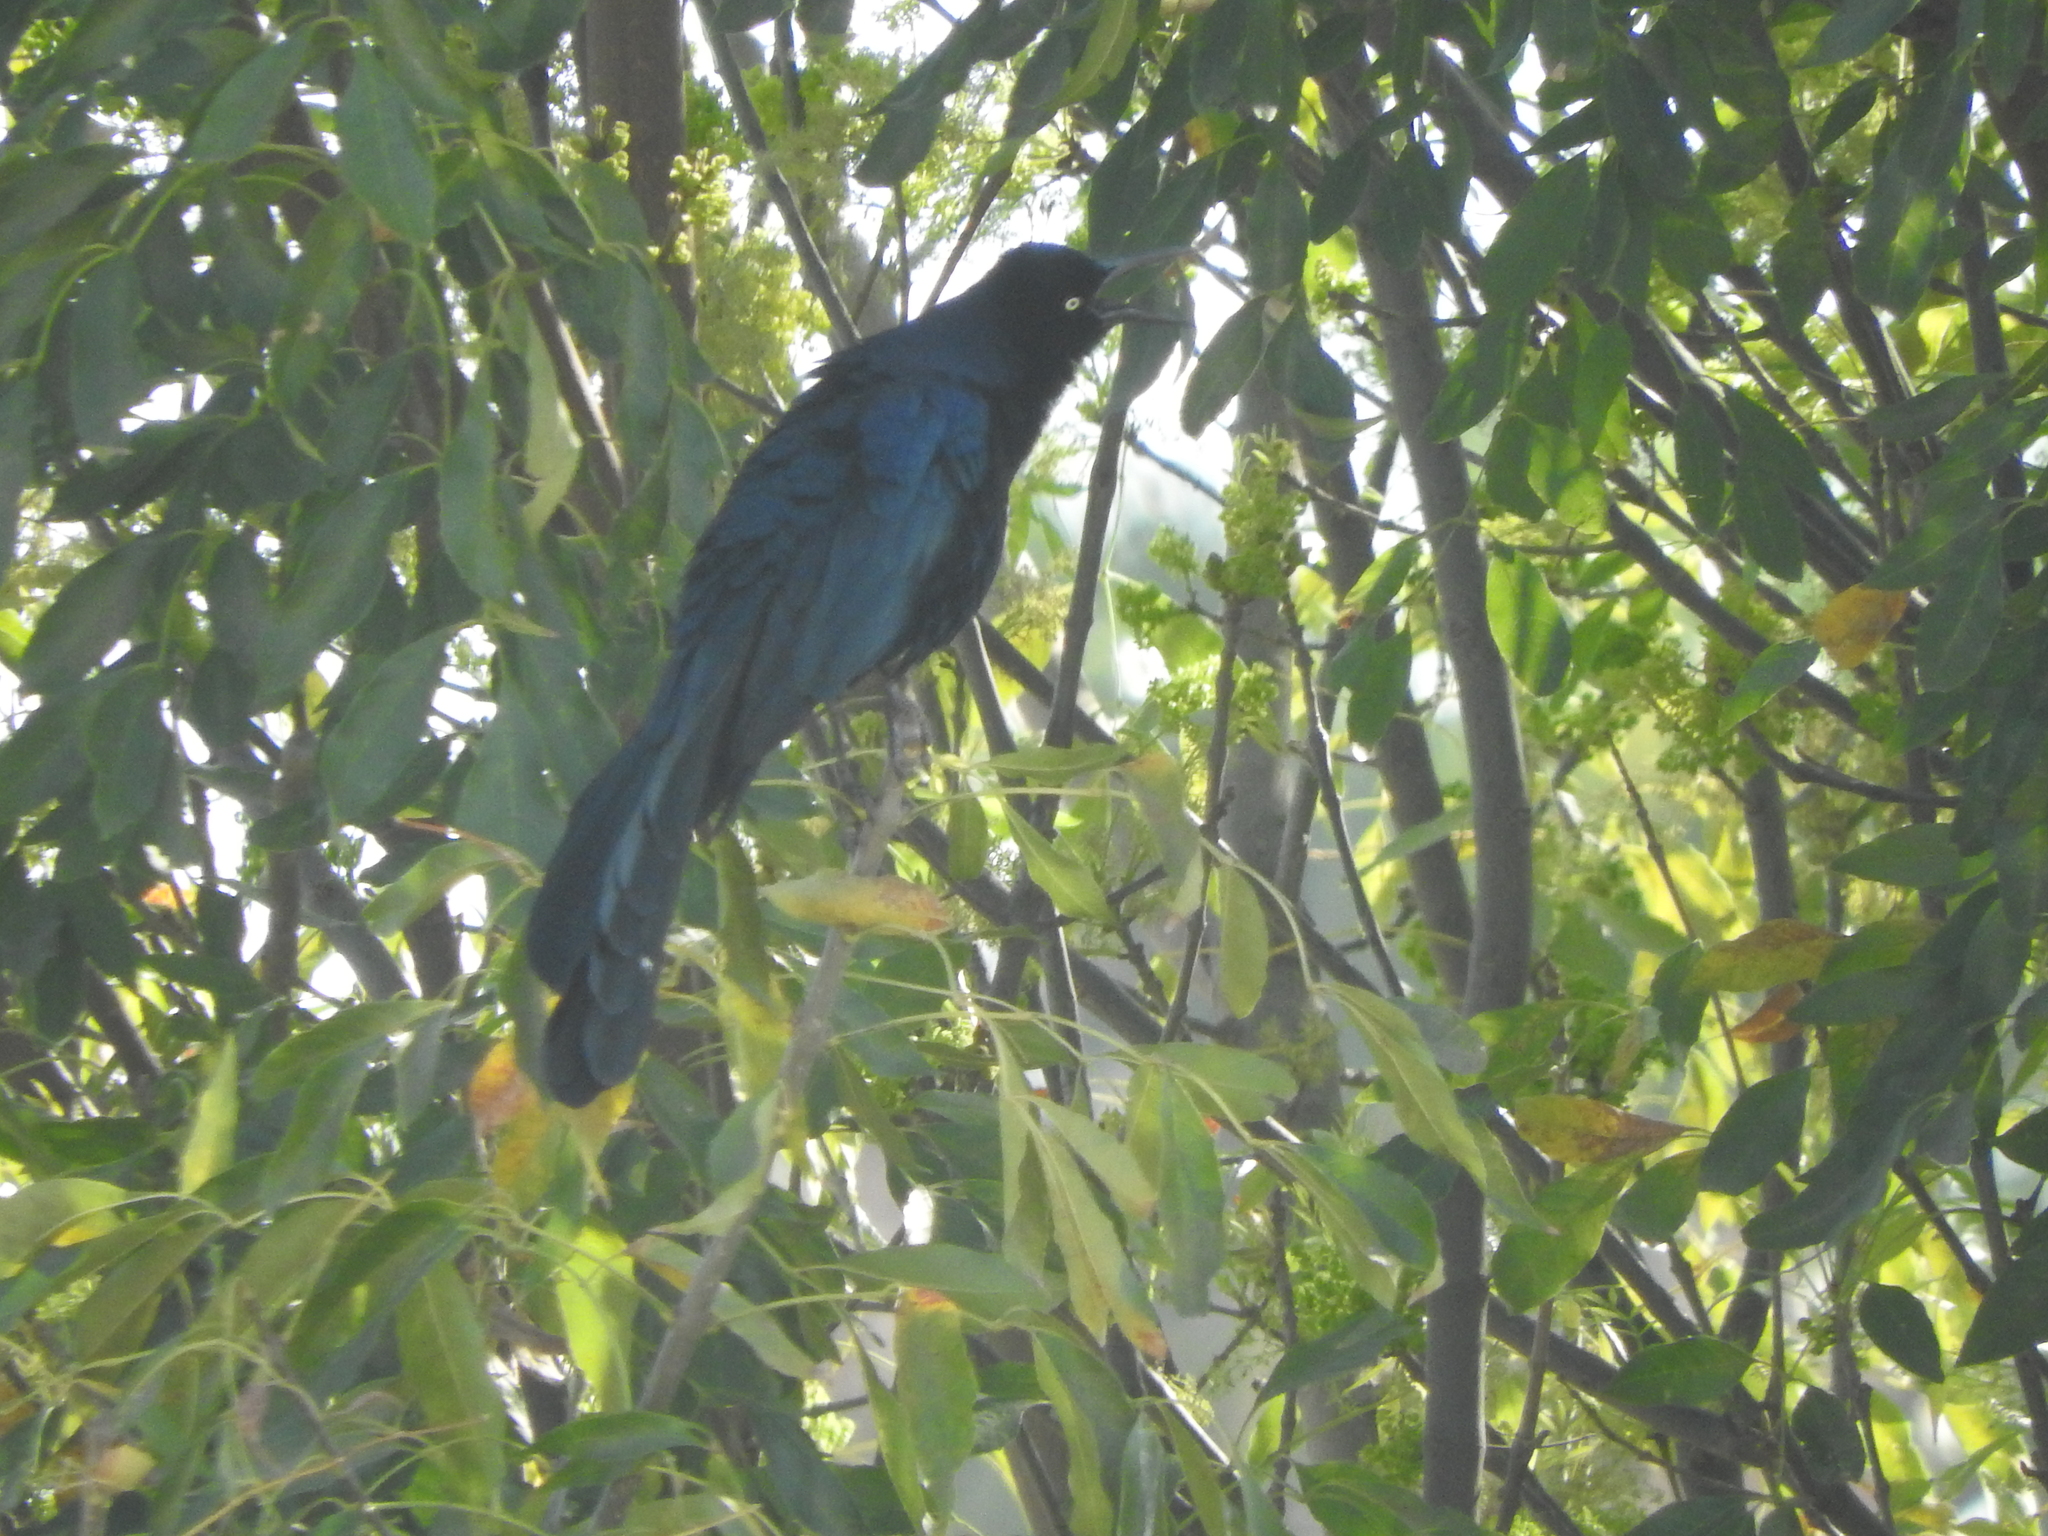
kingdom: Animalia
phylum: Chordata
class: Aves
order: Passeriformes
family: Icteridae
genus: Quiscalus
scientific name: Quiscalus mexicanus
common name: Great-tailed grackle
